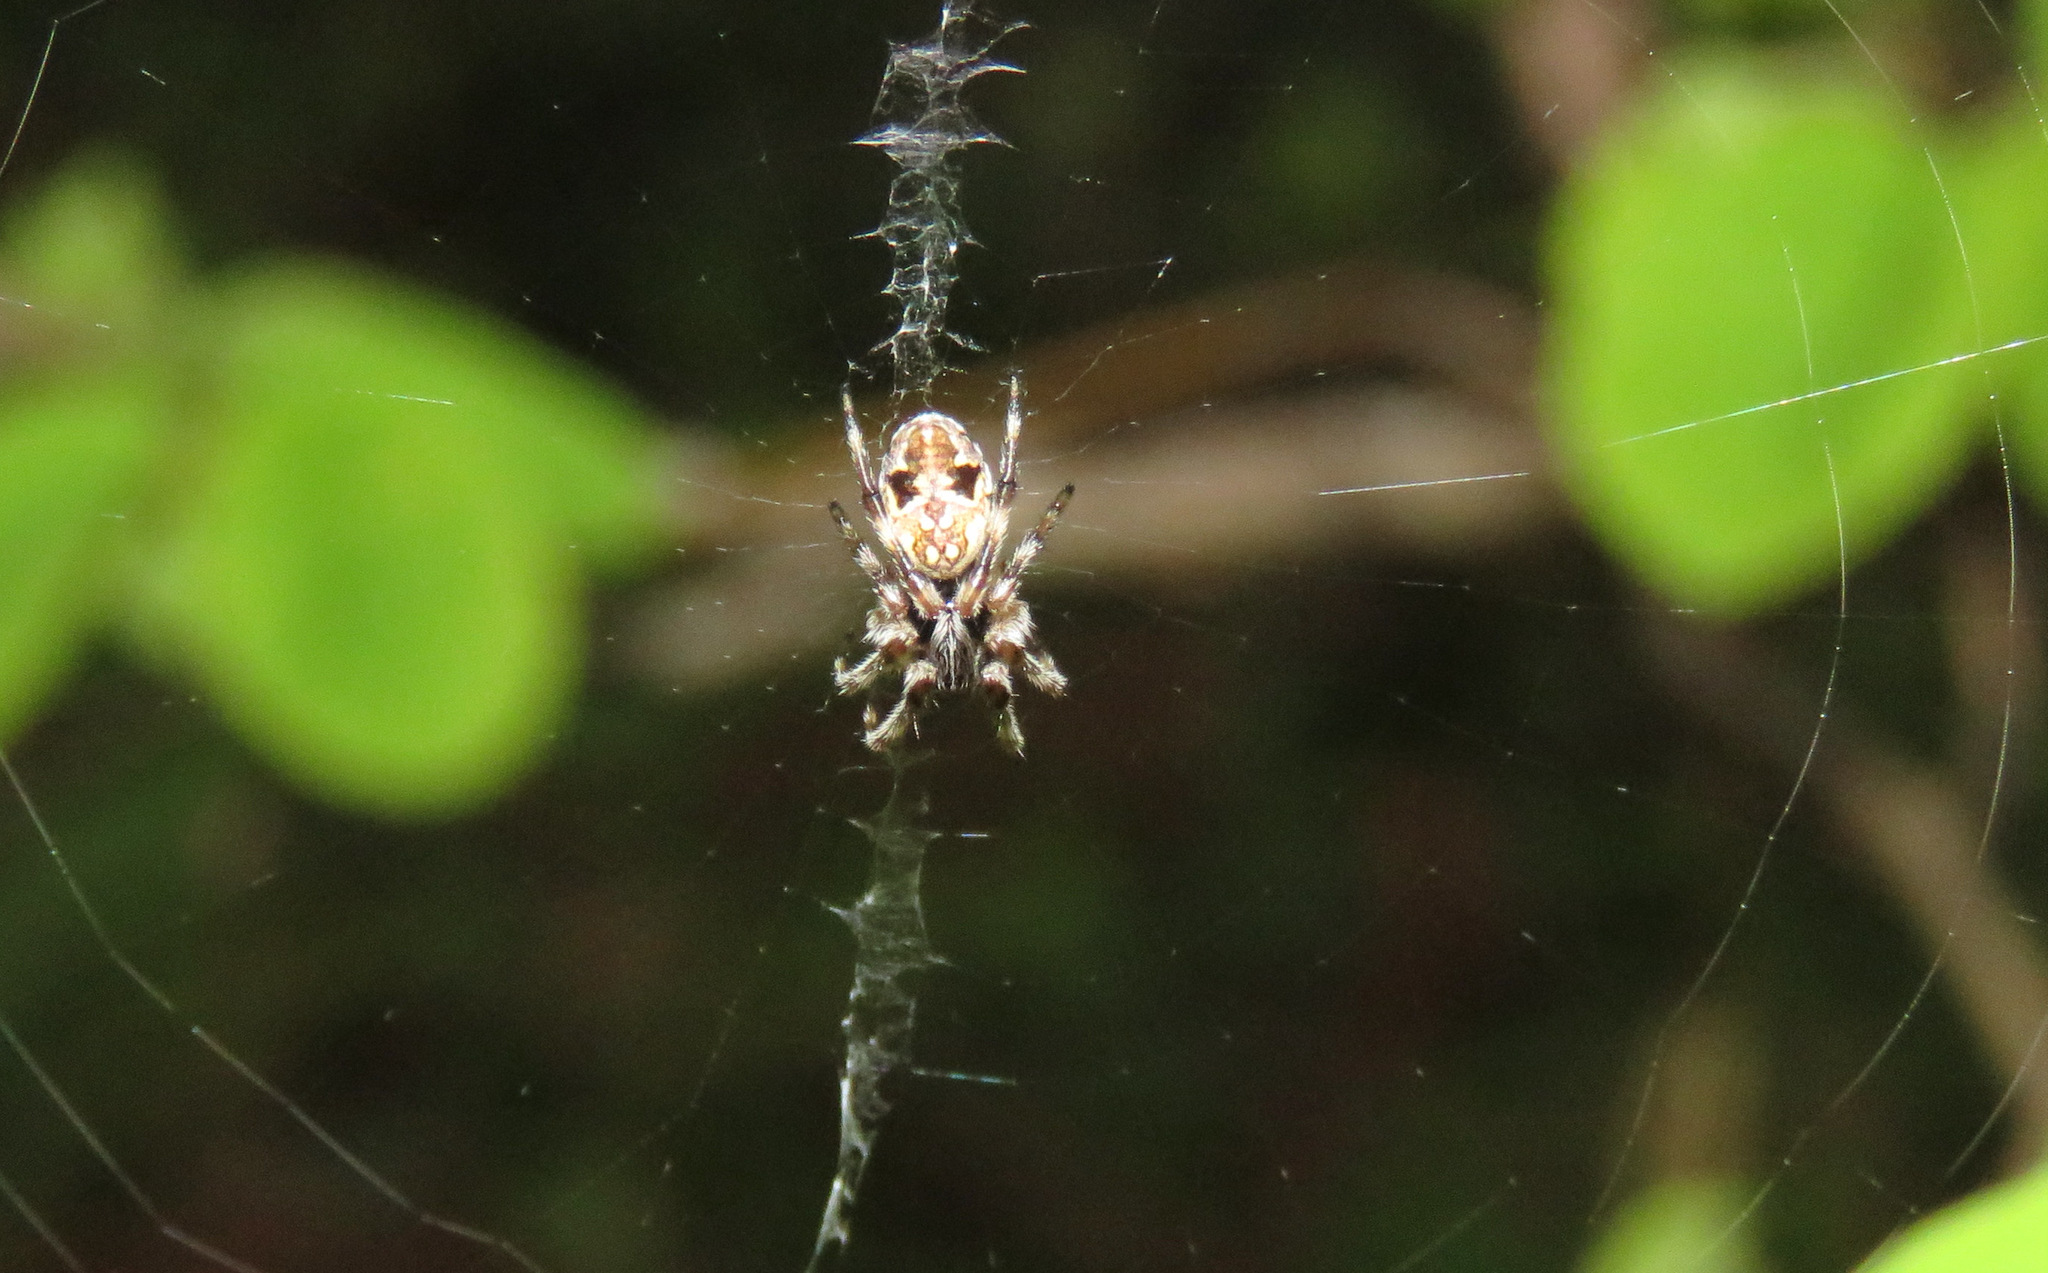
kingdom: Animalia
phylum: Arthropoda
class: Arachnida
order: Araneae
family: Araneidae
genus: Cyclosa
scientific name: Cyclosa conica
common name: Conical trashline orbweaver
